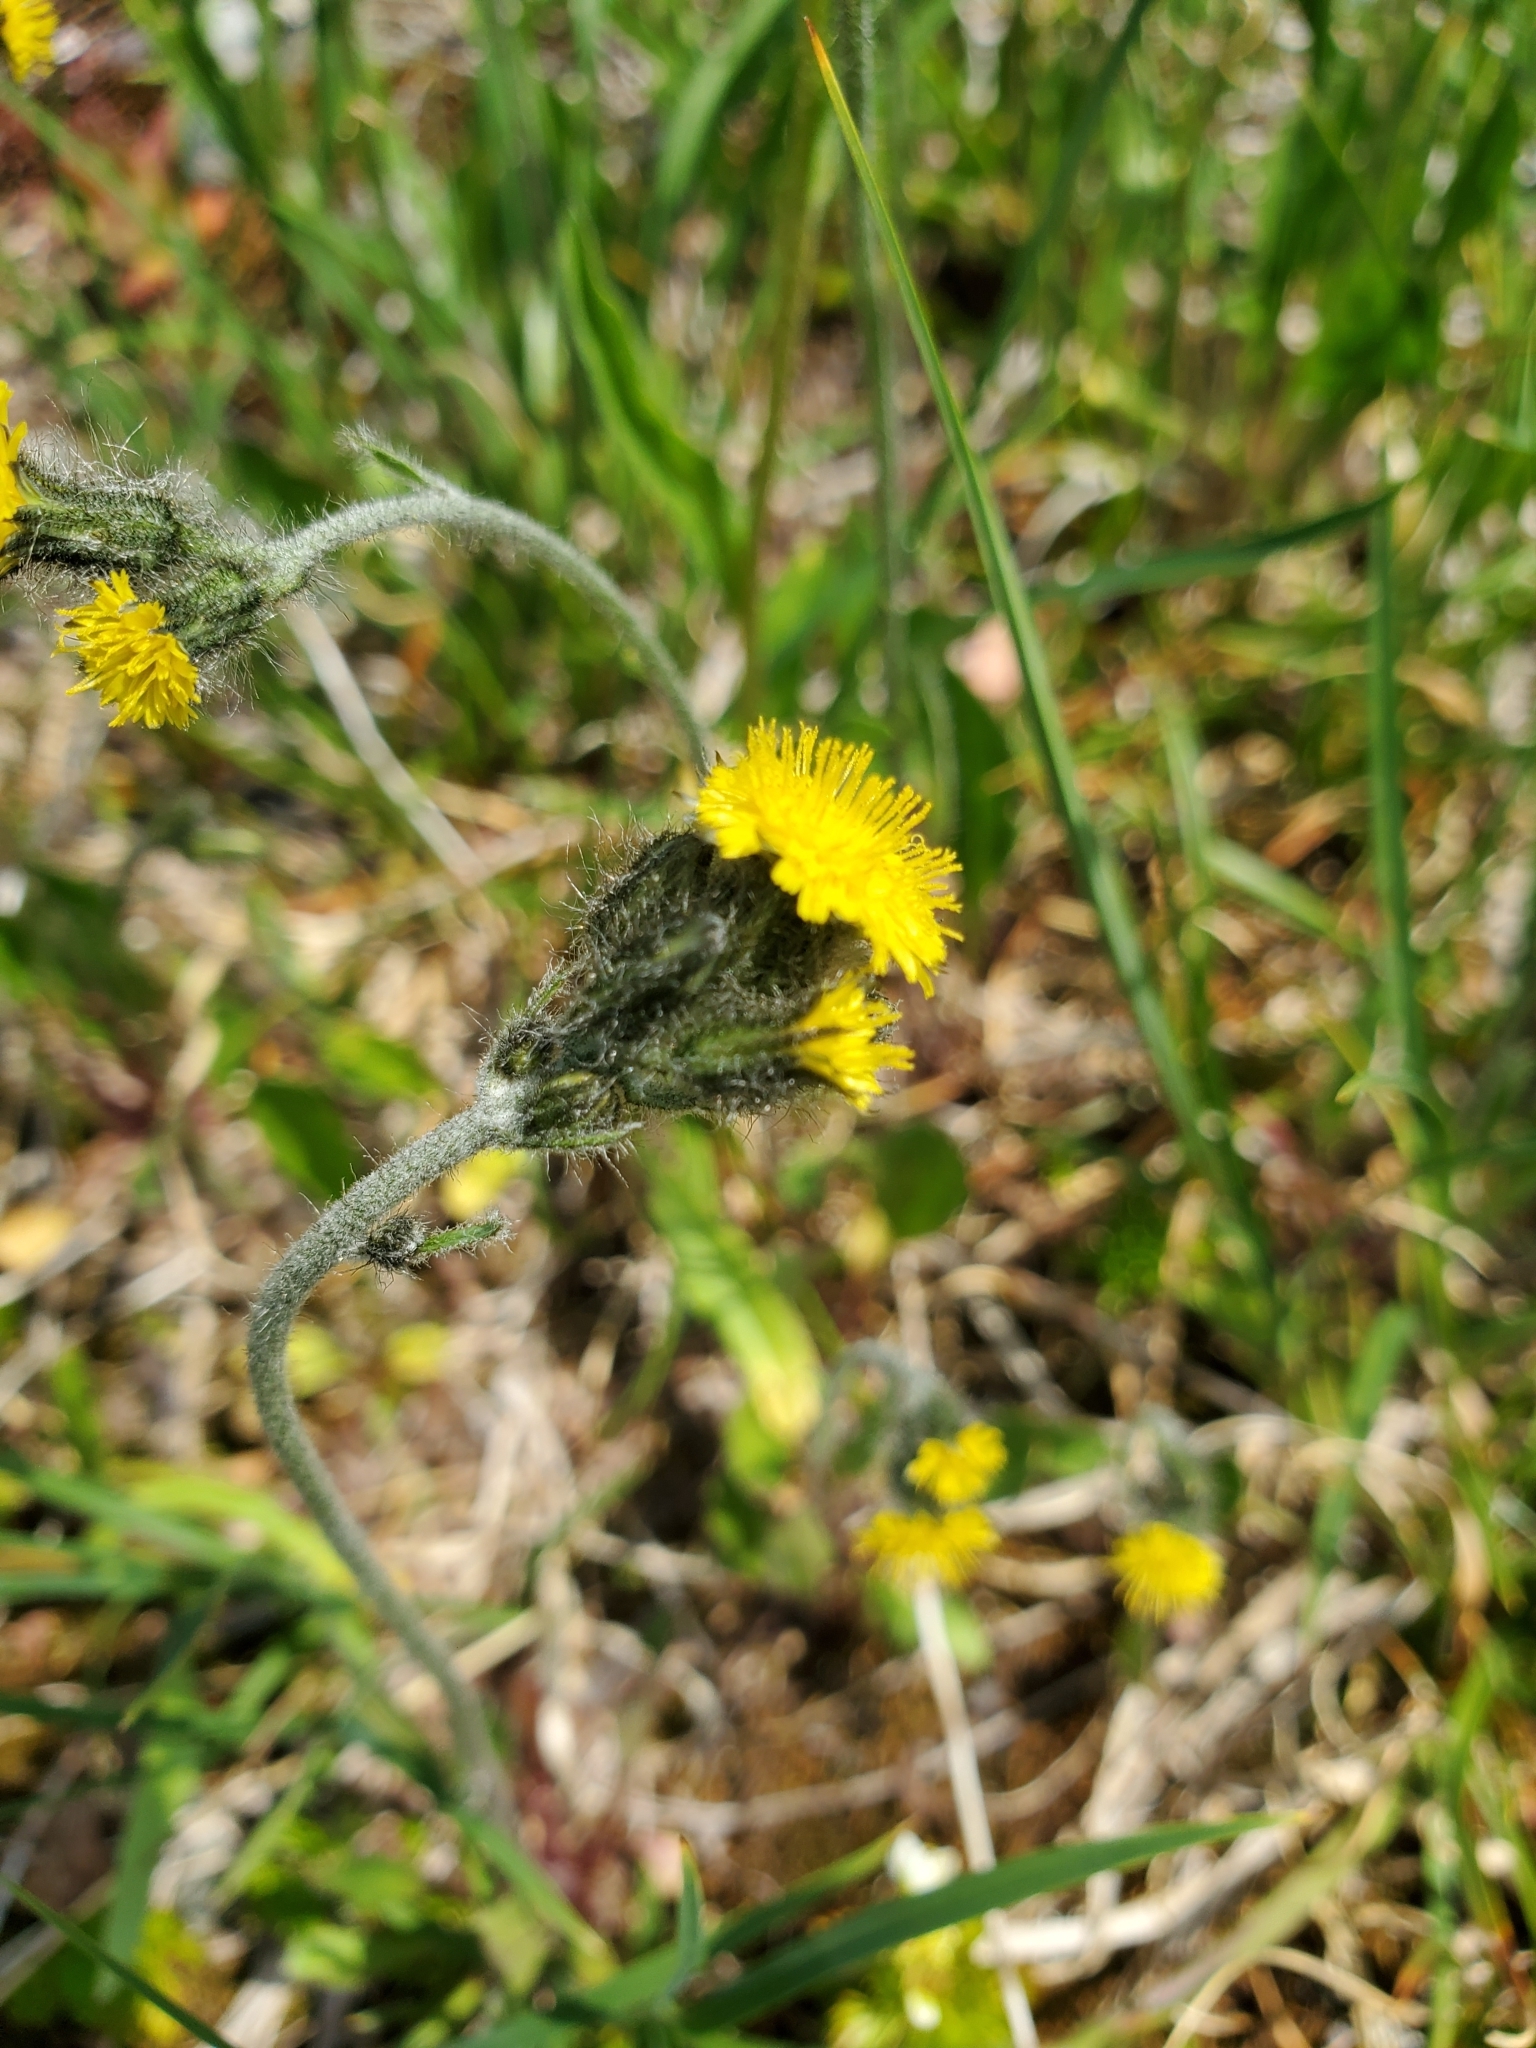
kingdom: Plantae
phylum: Tracheophyta
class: Magnoliopsida
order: Asterales
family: Asteraceae
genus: Hieracium
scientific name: Hieracium triste
